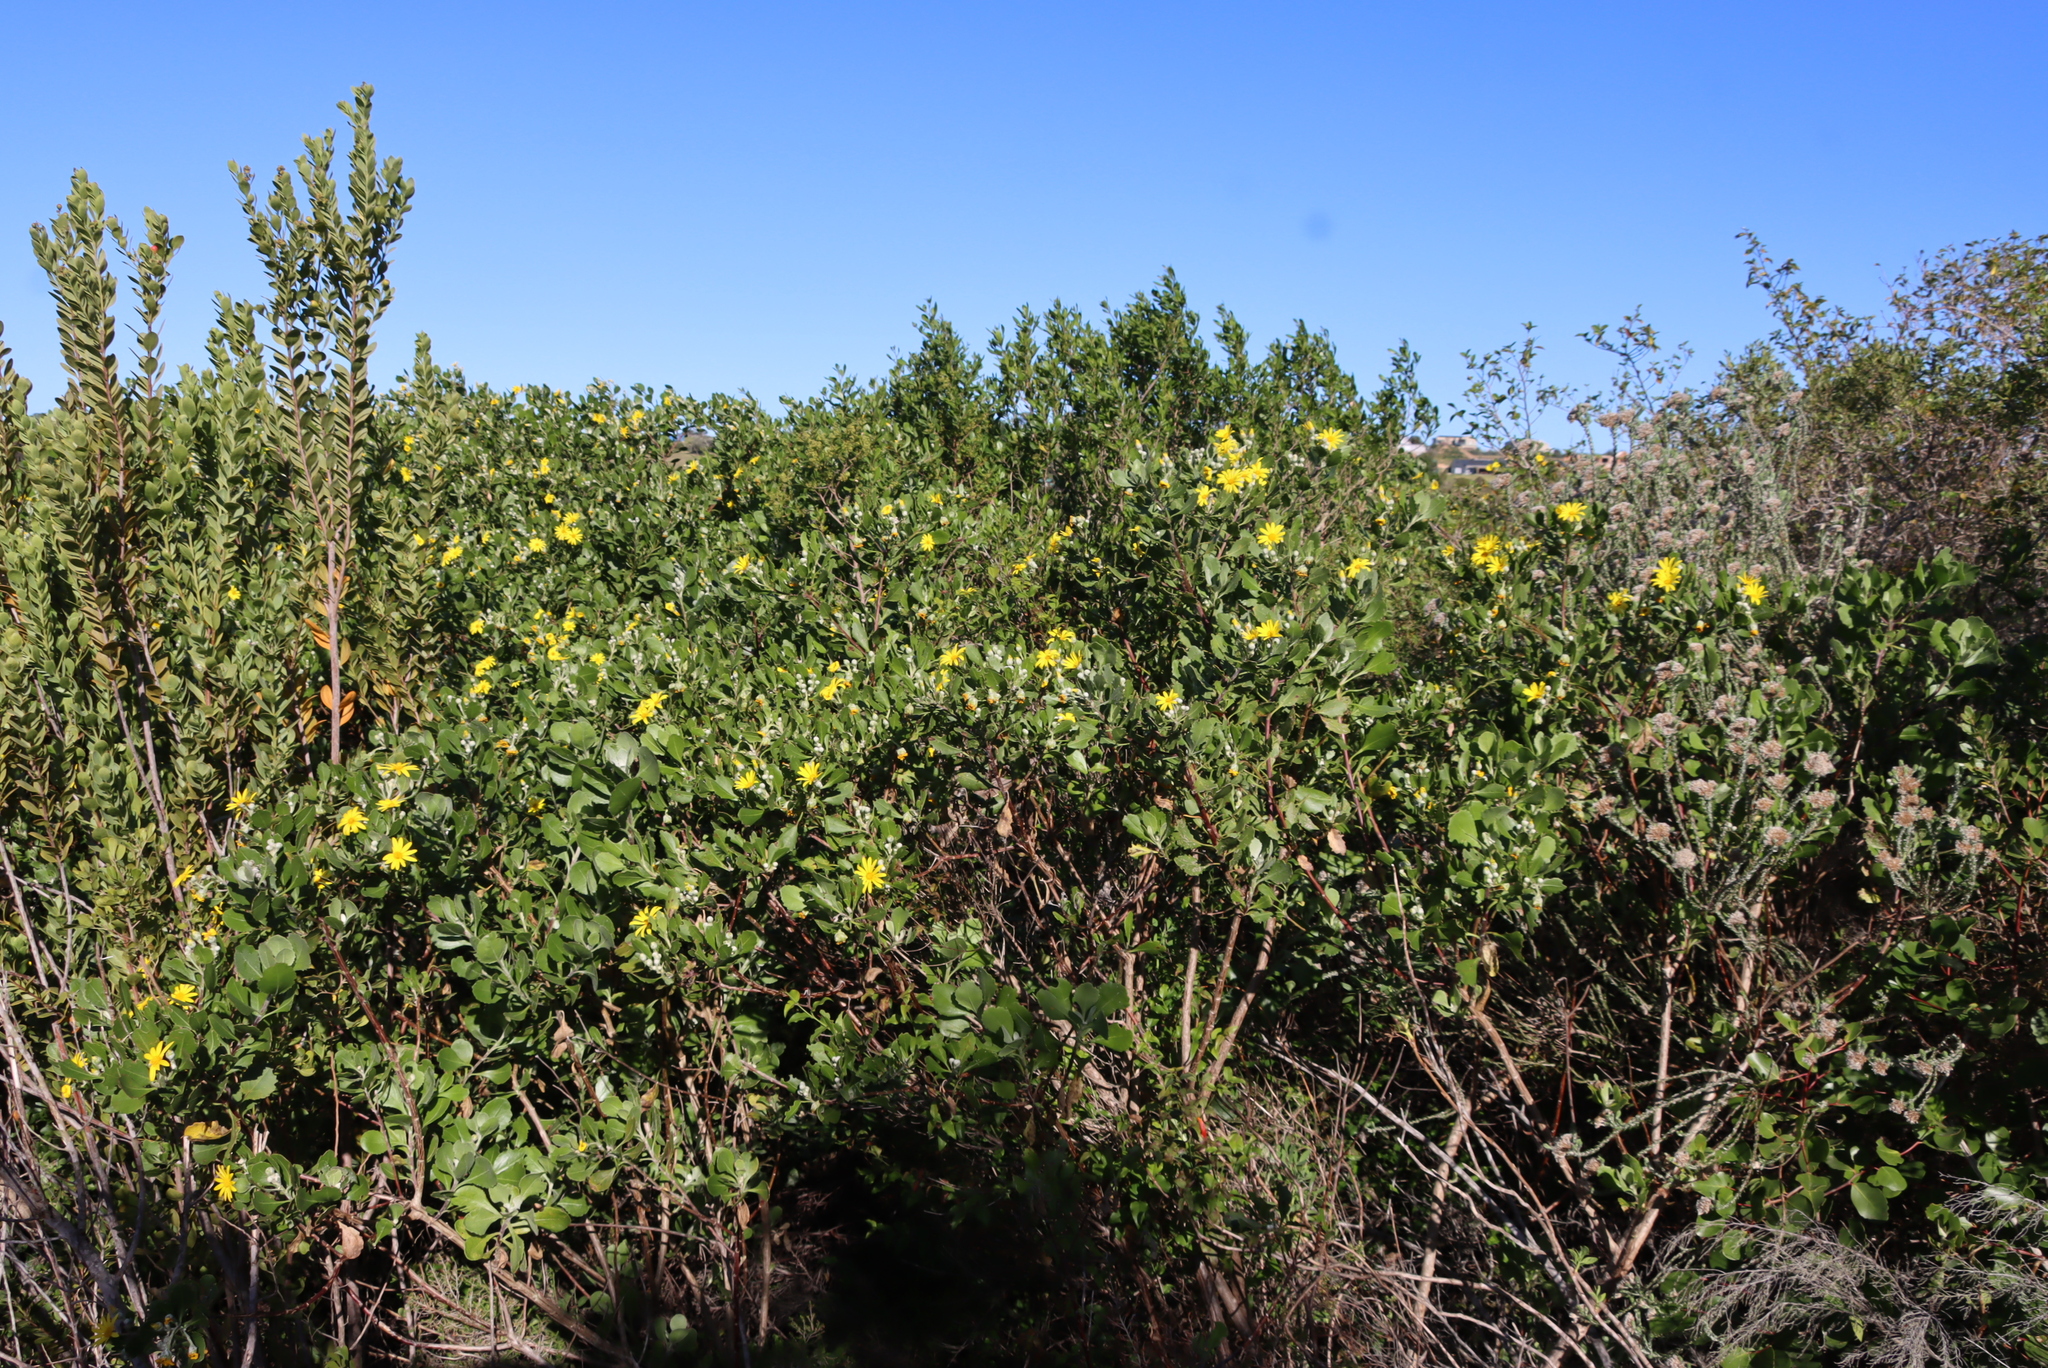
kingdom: Plantae
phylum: Tracheophyta
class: Magnoliopsida
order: Asterales
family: Asteraceae
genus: Osteospermum
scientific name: Osteospermum moniliferum
